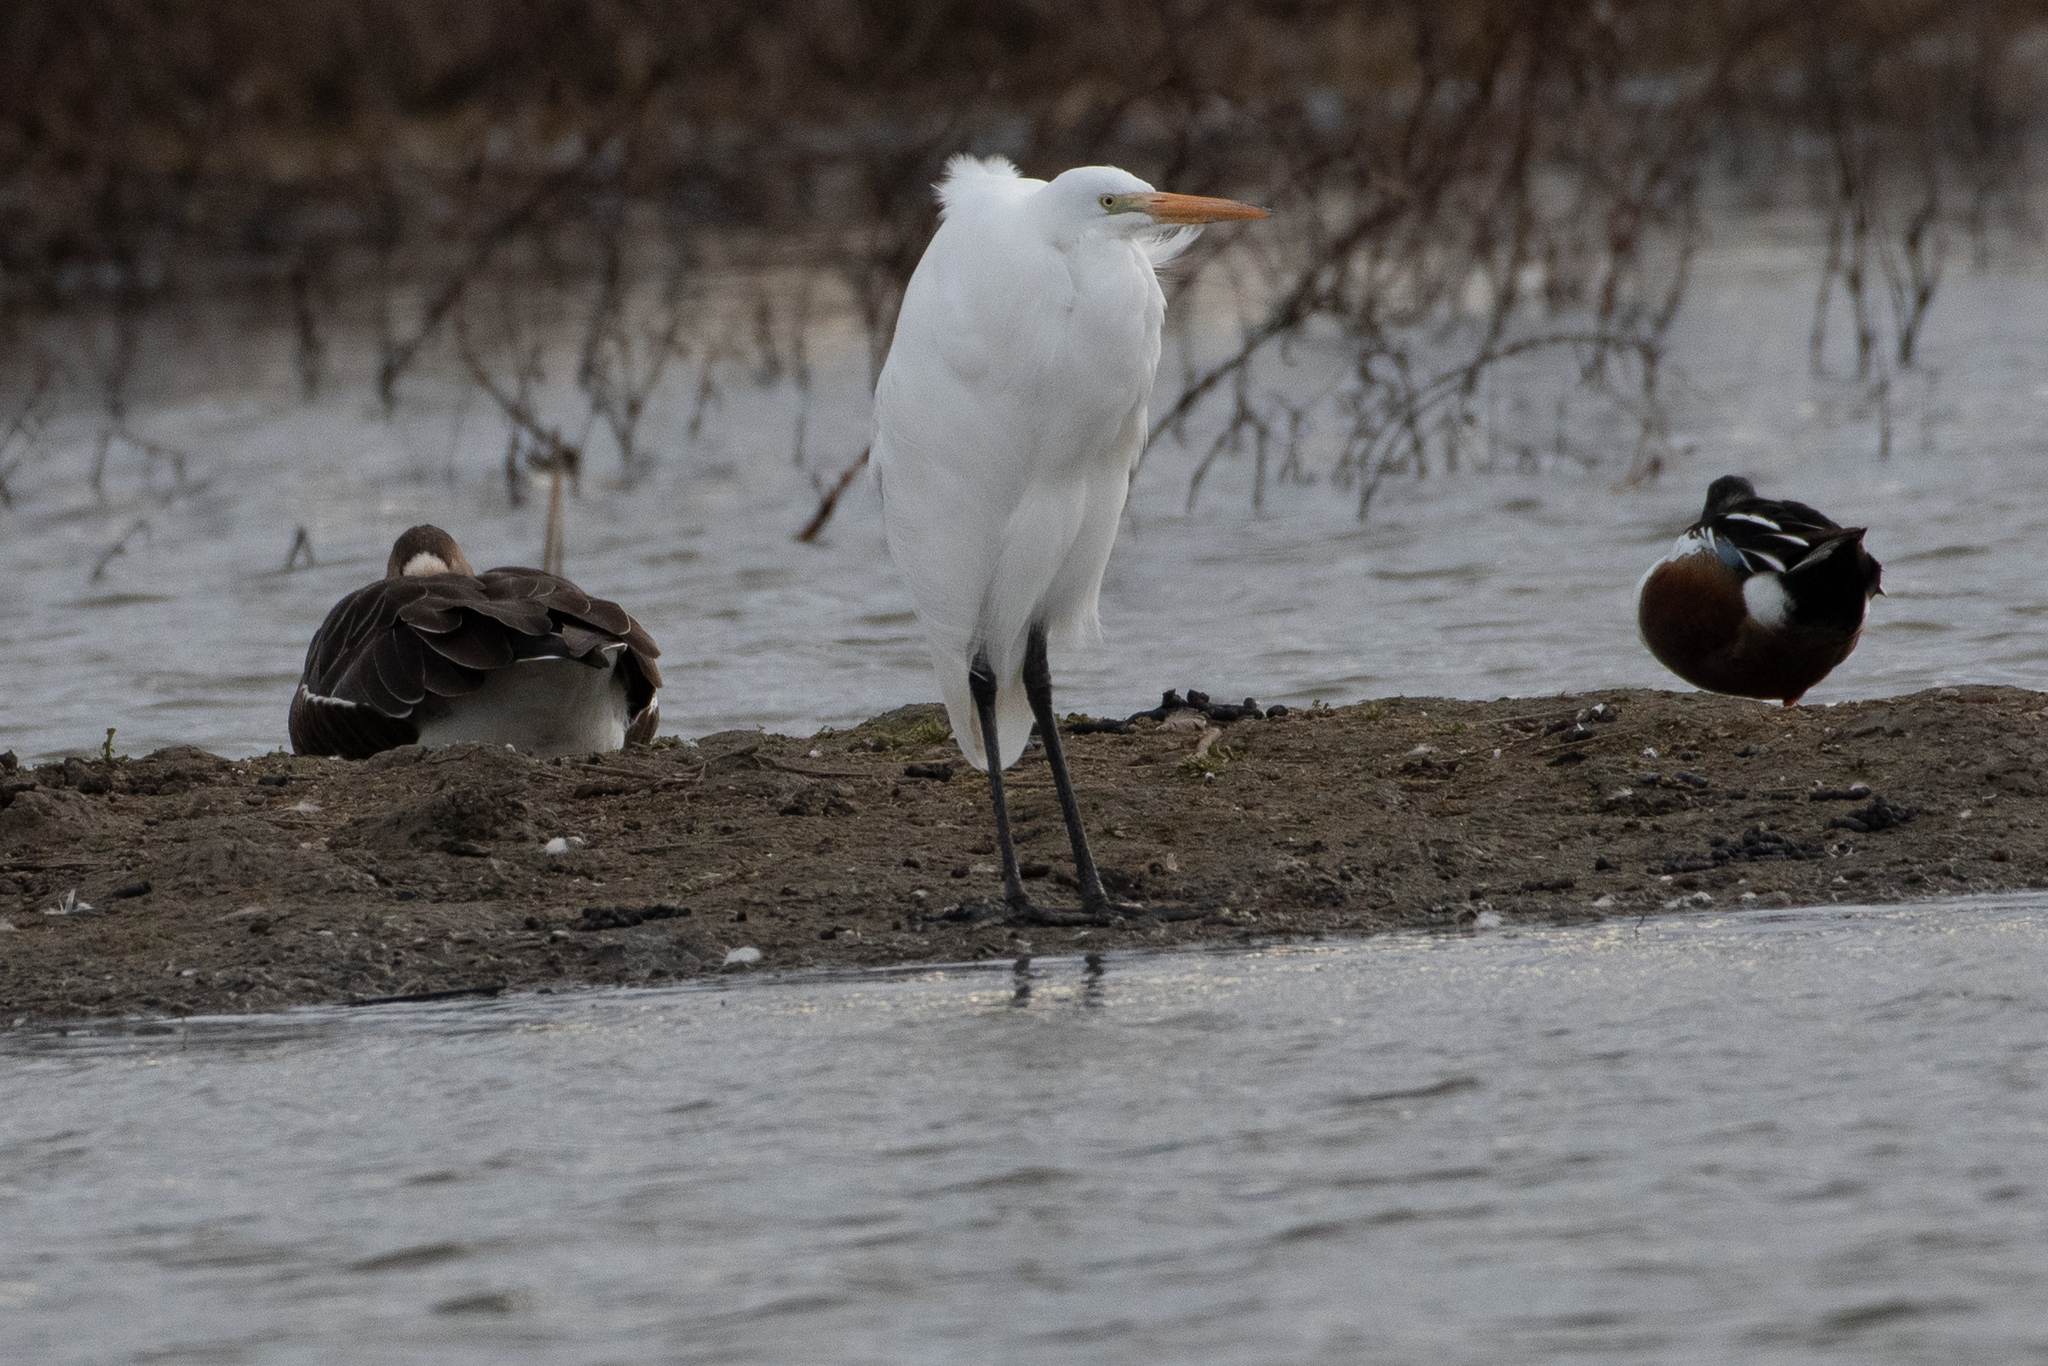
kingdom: Animalia
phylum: Chordata
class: Aves
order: Pelecaniformes
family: Ardeidae
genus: Ardea
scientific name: Ardea alba
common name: Great egret
